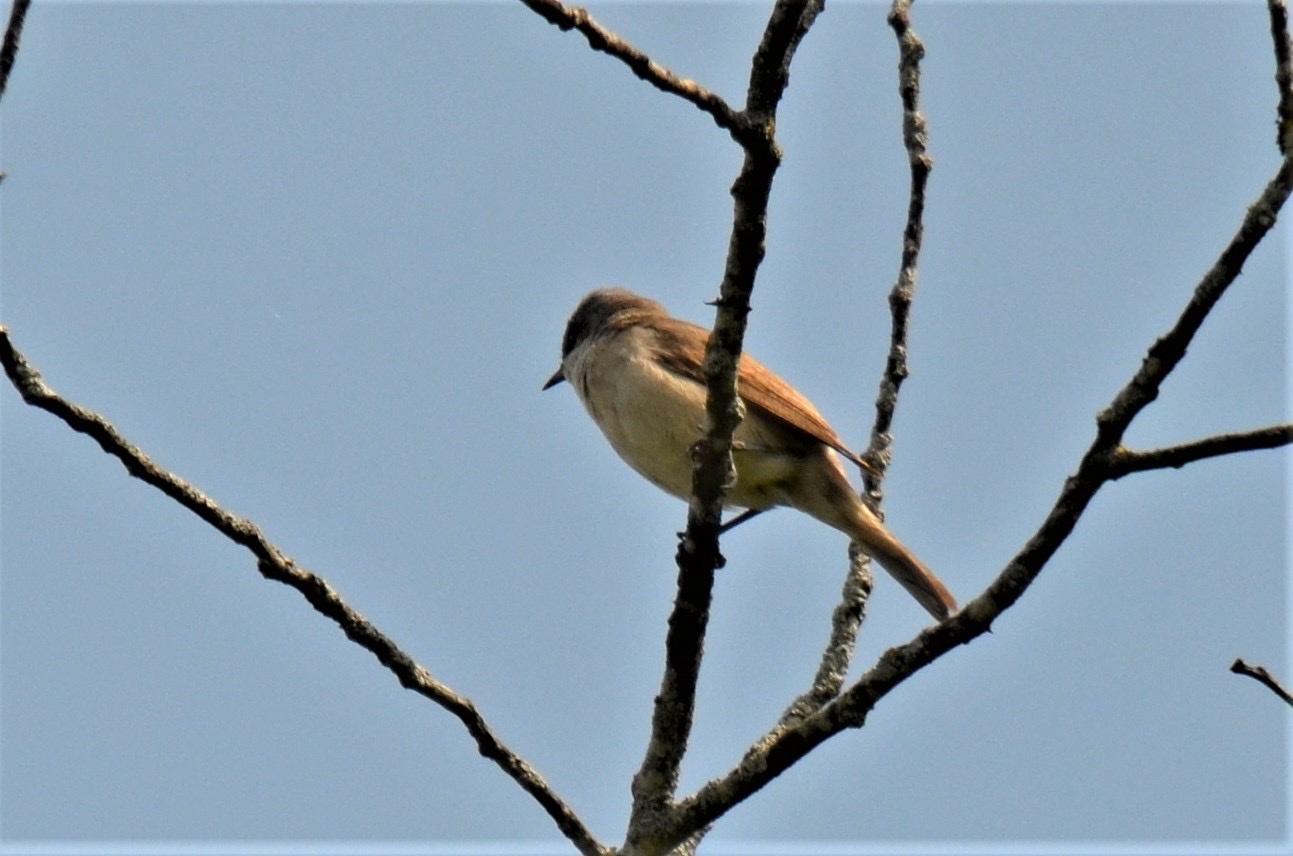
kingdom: Animalia
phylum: Chordata
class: Aves
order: Passeriformes
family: Sylviidae
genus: Sylvia
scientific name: Sylvia curruca
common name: Lesser whitethroat
